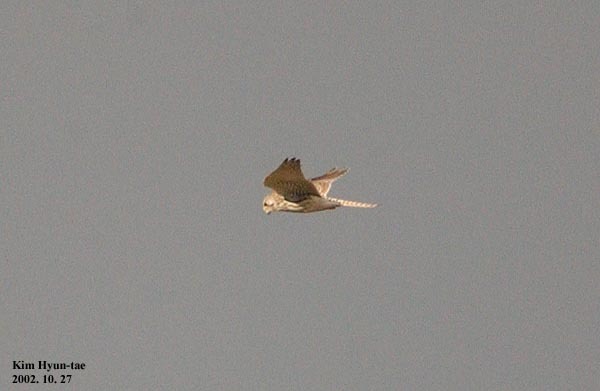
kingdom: Animalia
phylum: Chordata
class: Aves
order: Falconiformes
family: Falconidae
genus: Falco
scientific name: Falco tinnunculus
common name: Common kestrel
